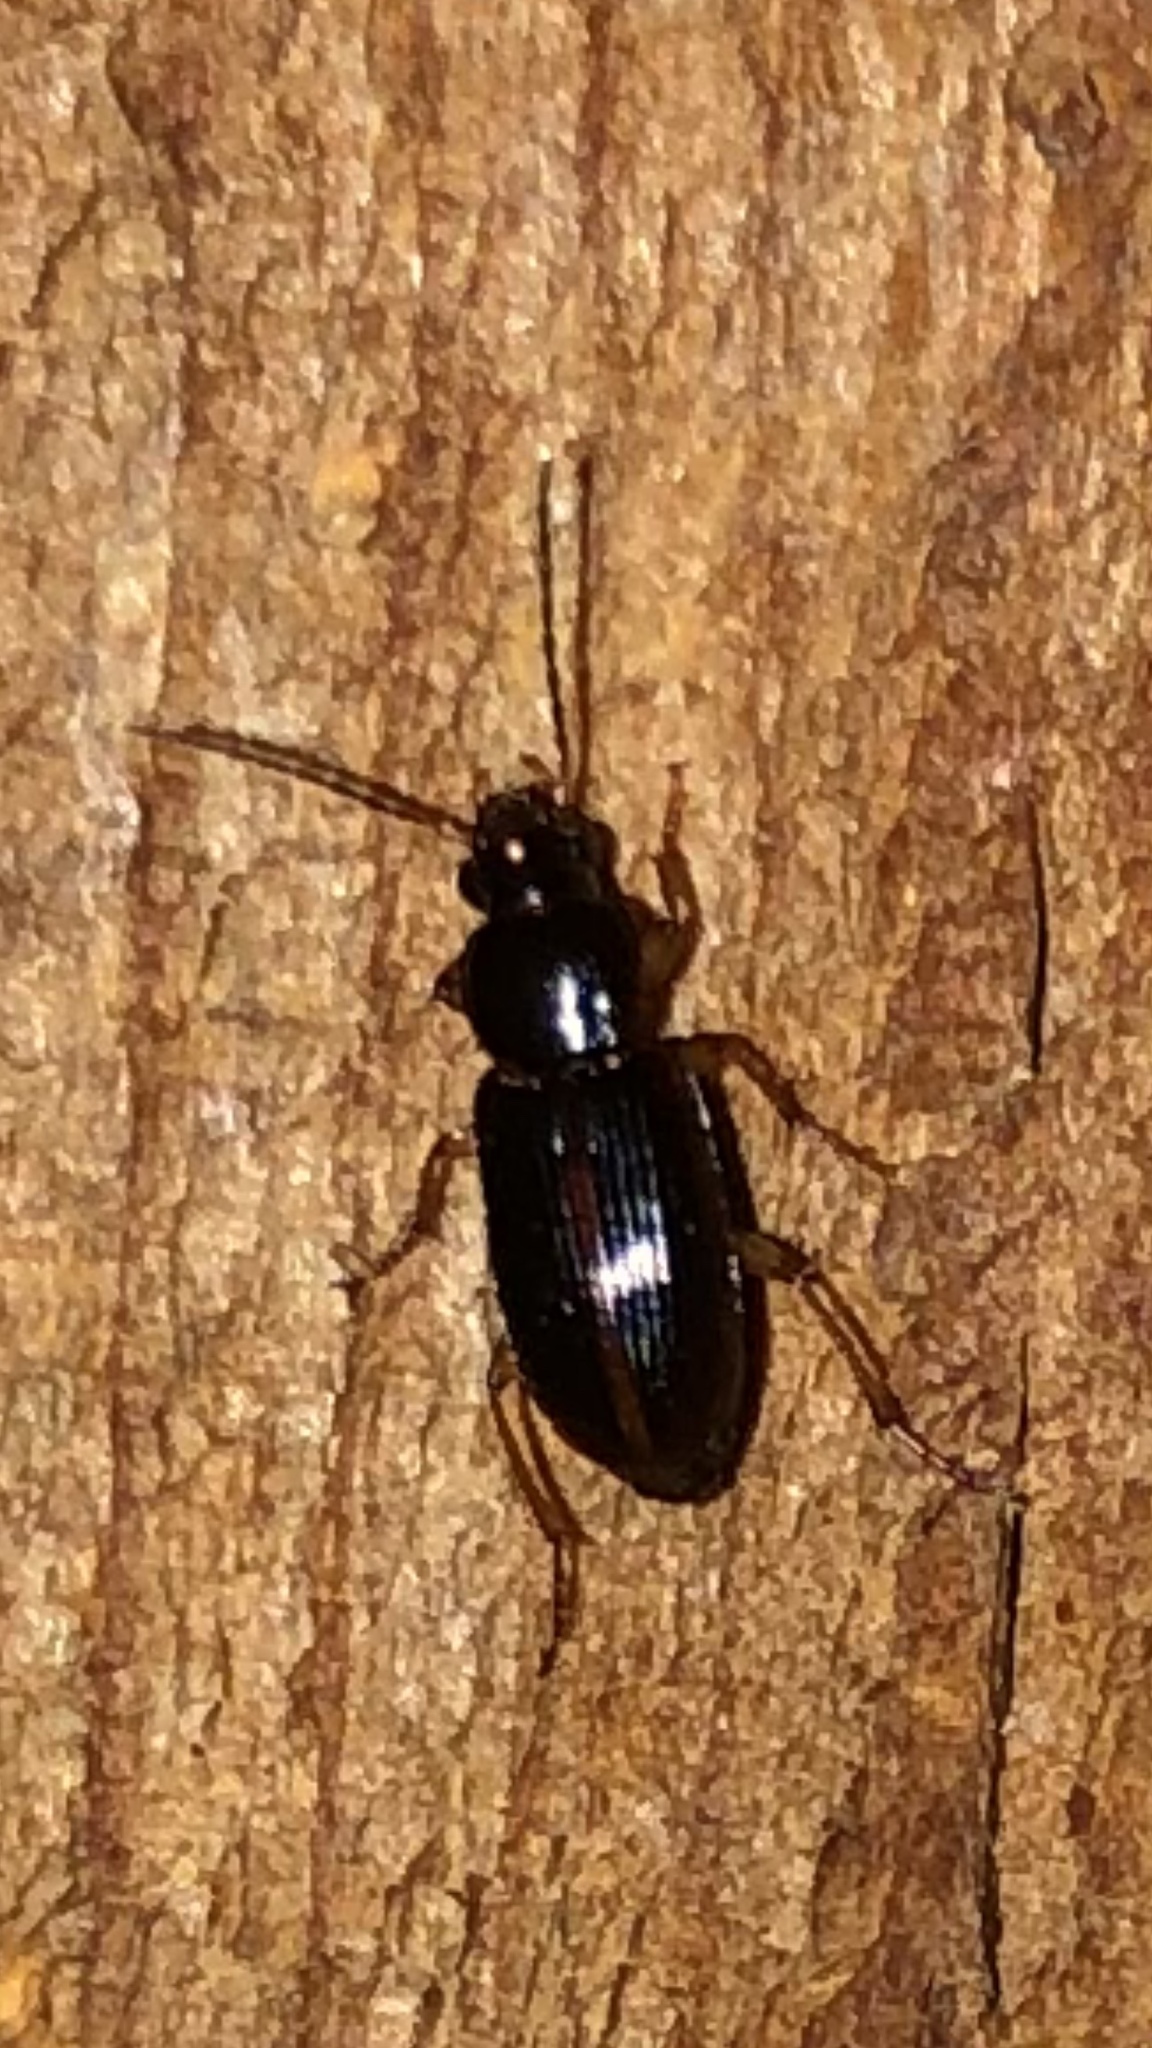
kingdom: Animalia
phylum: Arthropoda
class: Insecta
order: Coleoptera
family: Carabidae
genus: Stenolophus
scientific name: Stenolophus ochropezus
